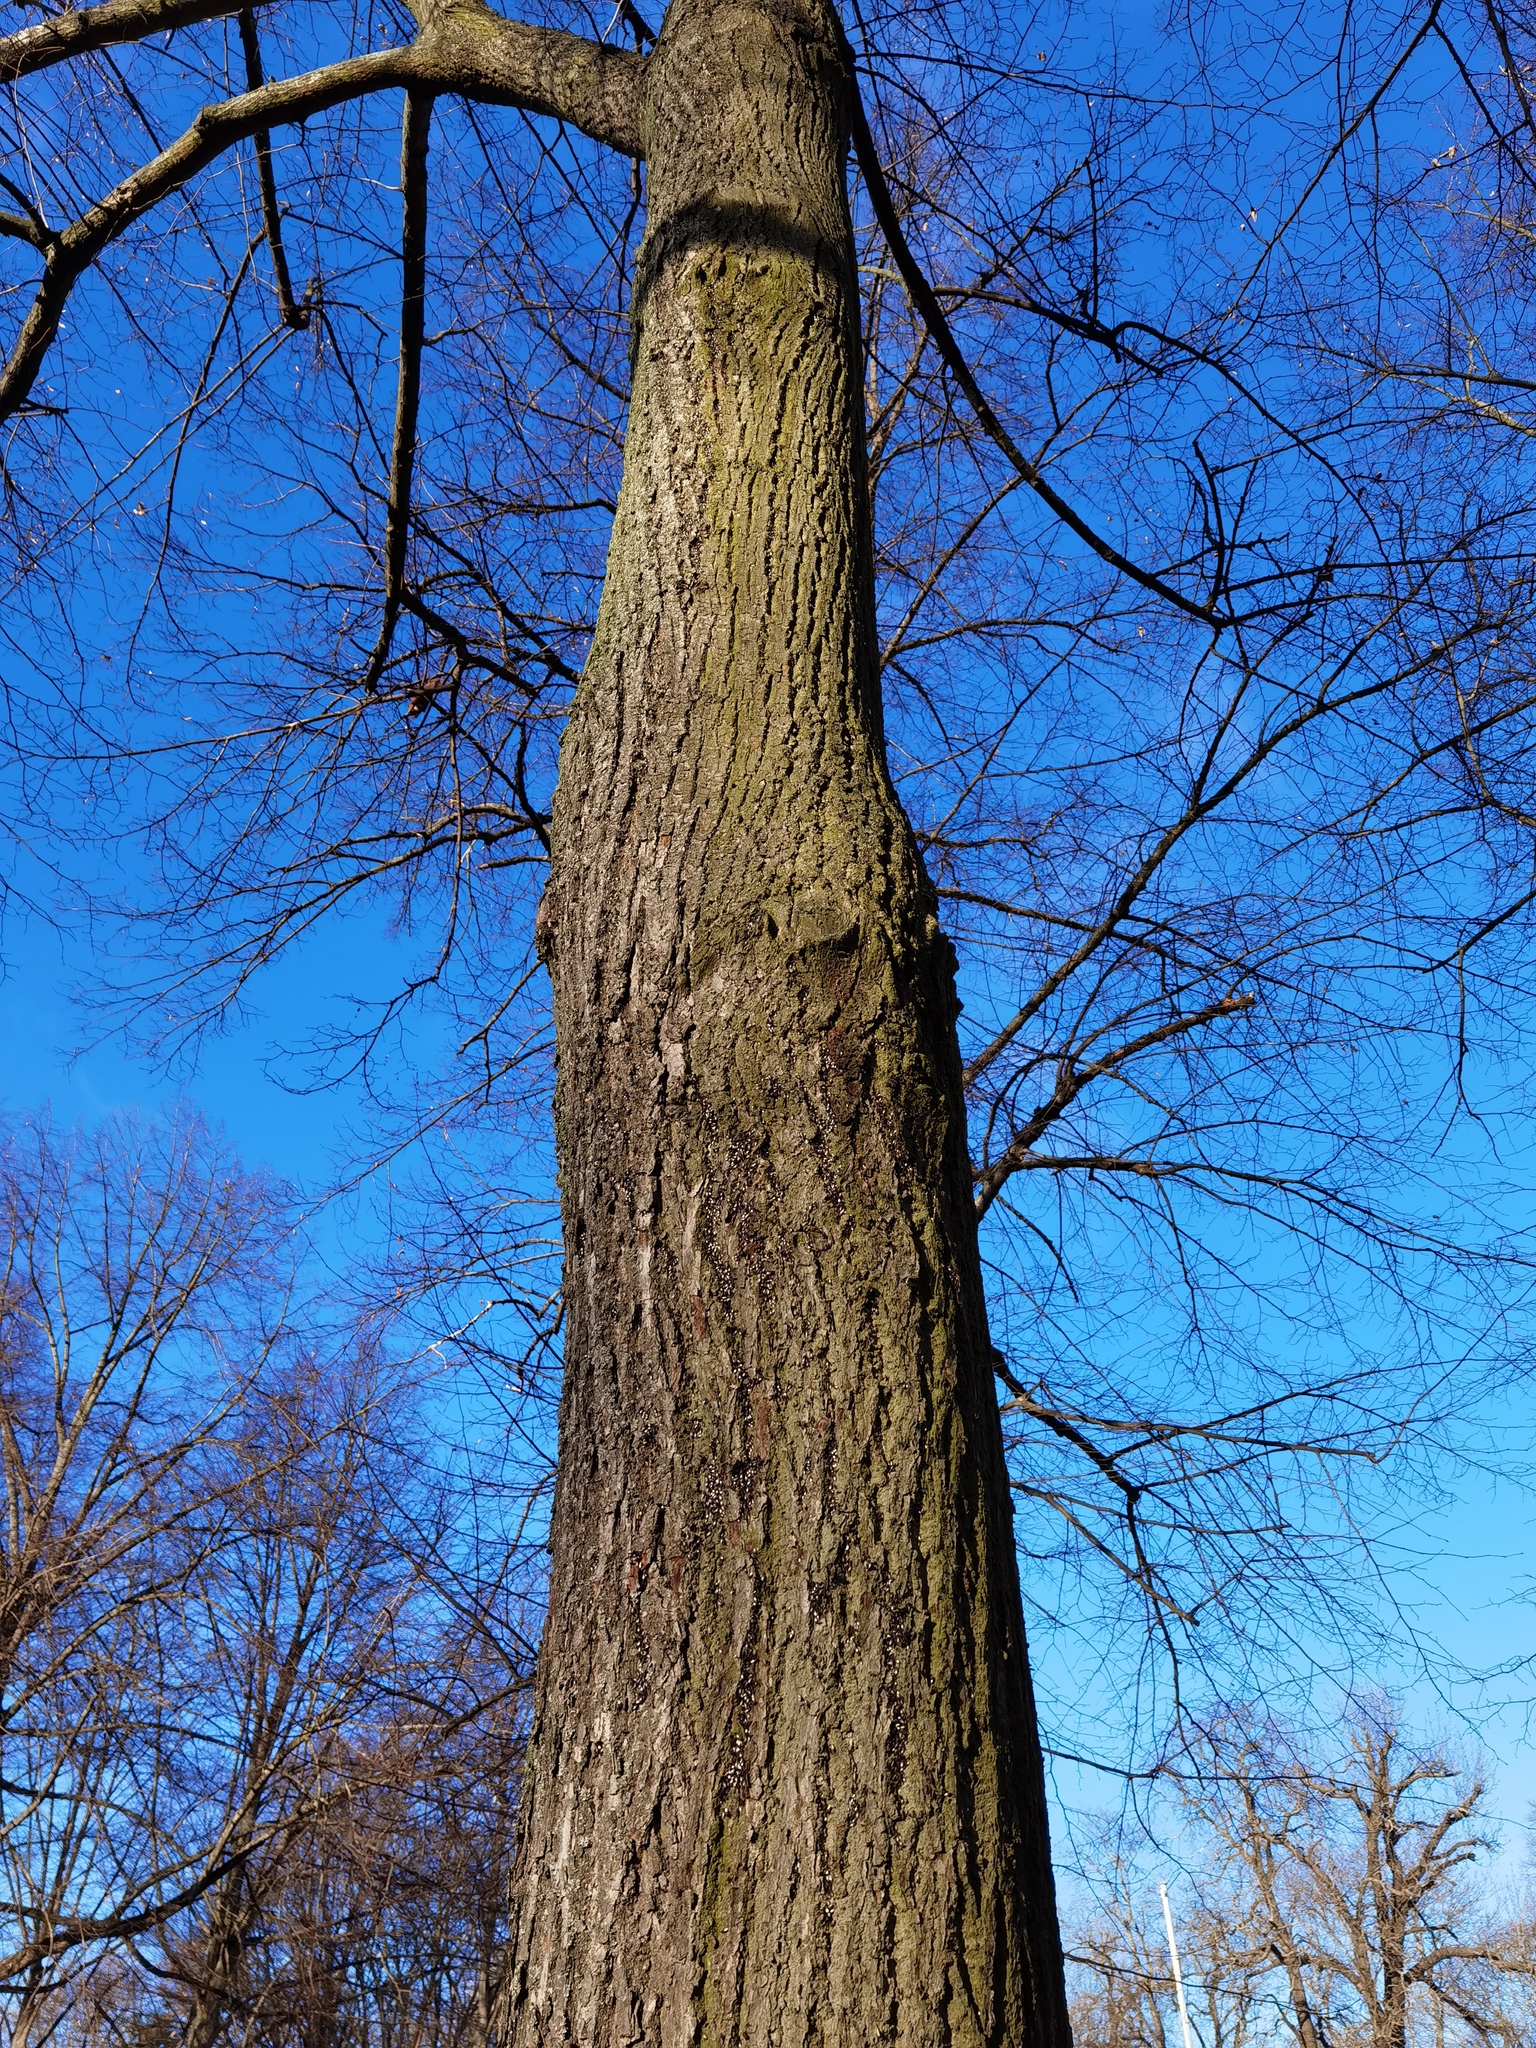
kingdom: Animalia
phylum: Arthropoda
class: Insecta
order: Hemiptera
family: Oxycarenidae
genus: Oxycarenus
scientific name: Oxycarenus lavaterae
